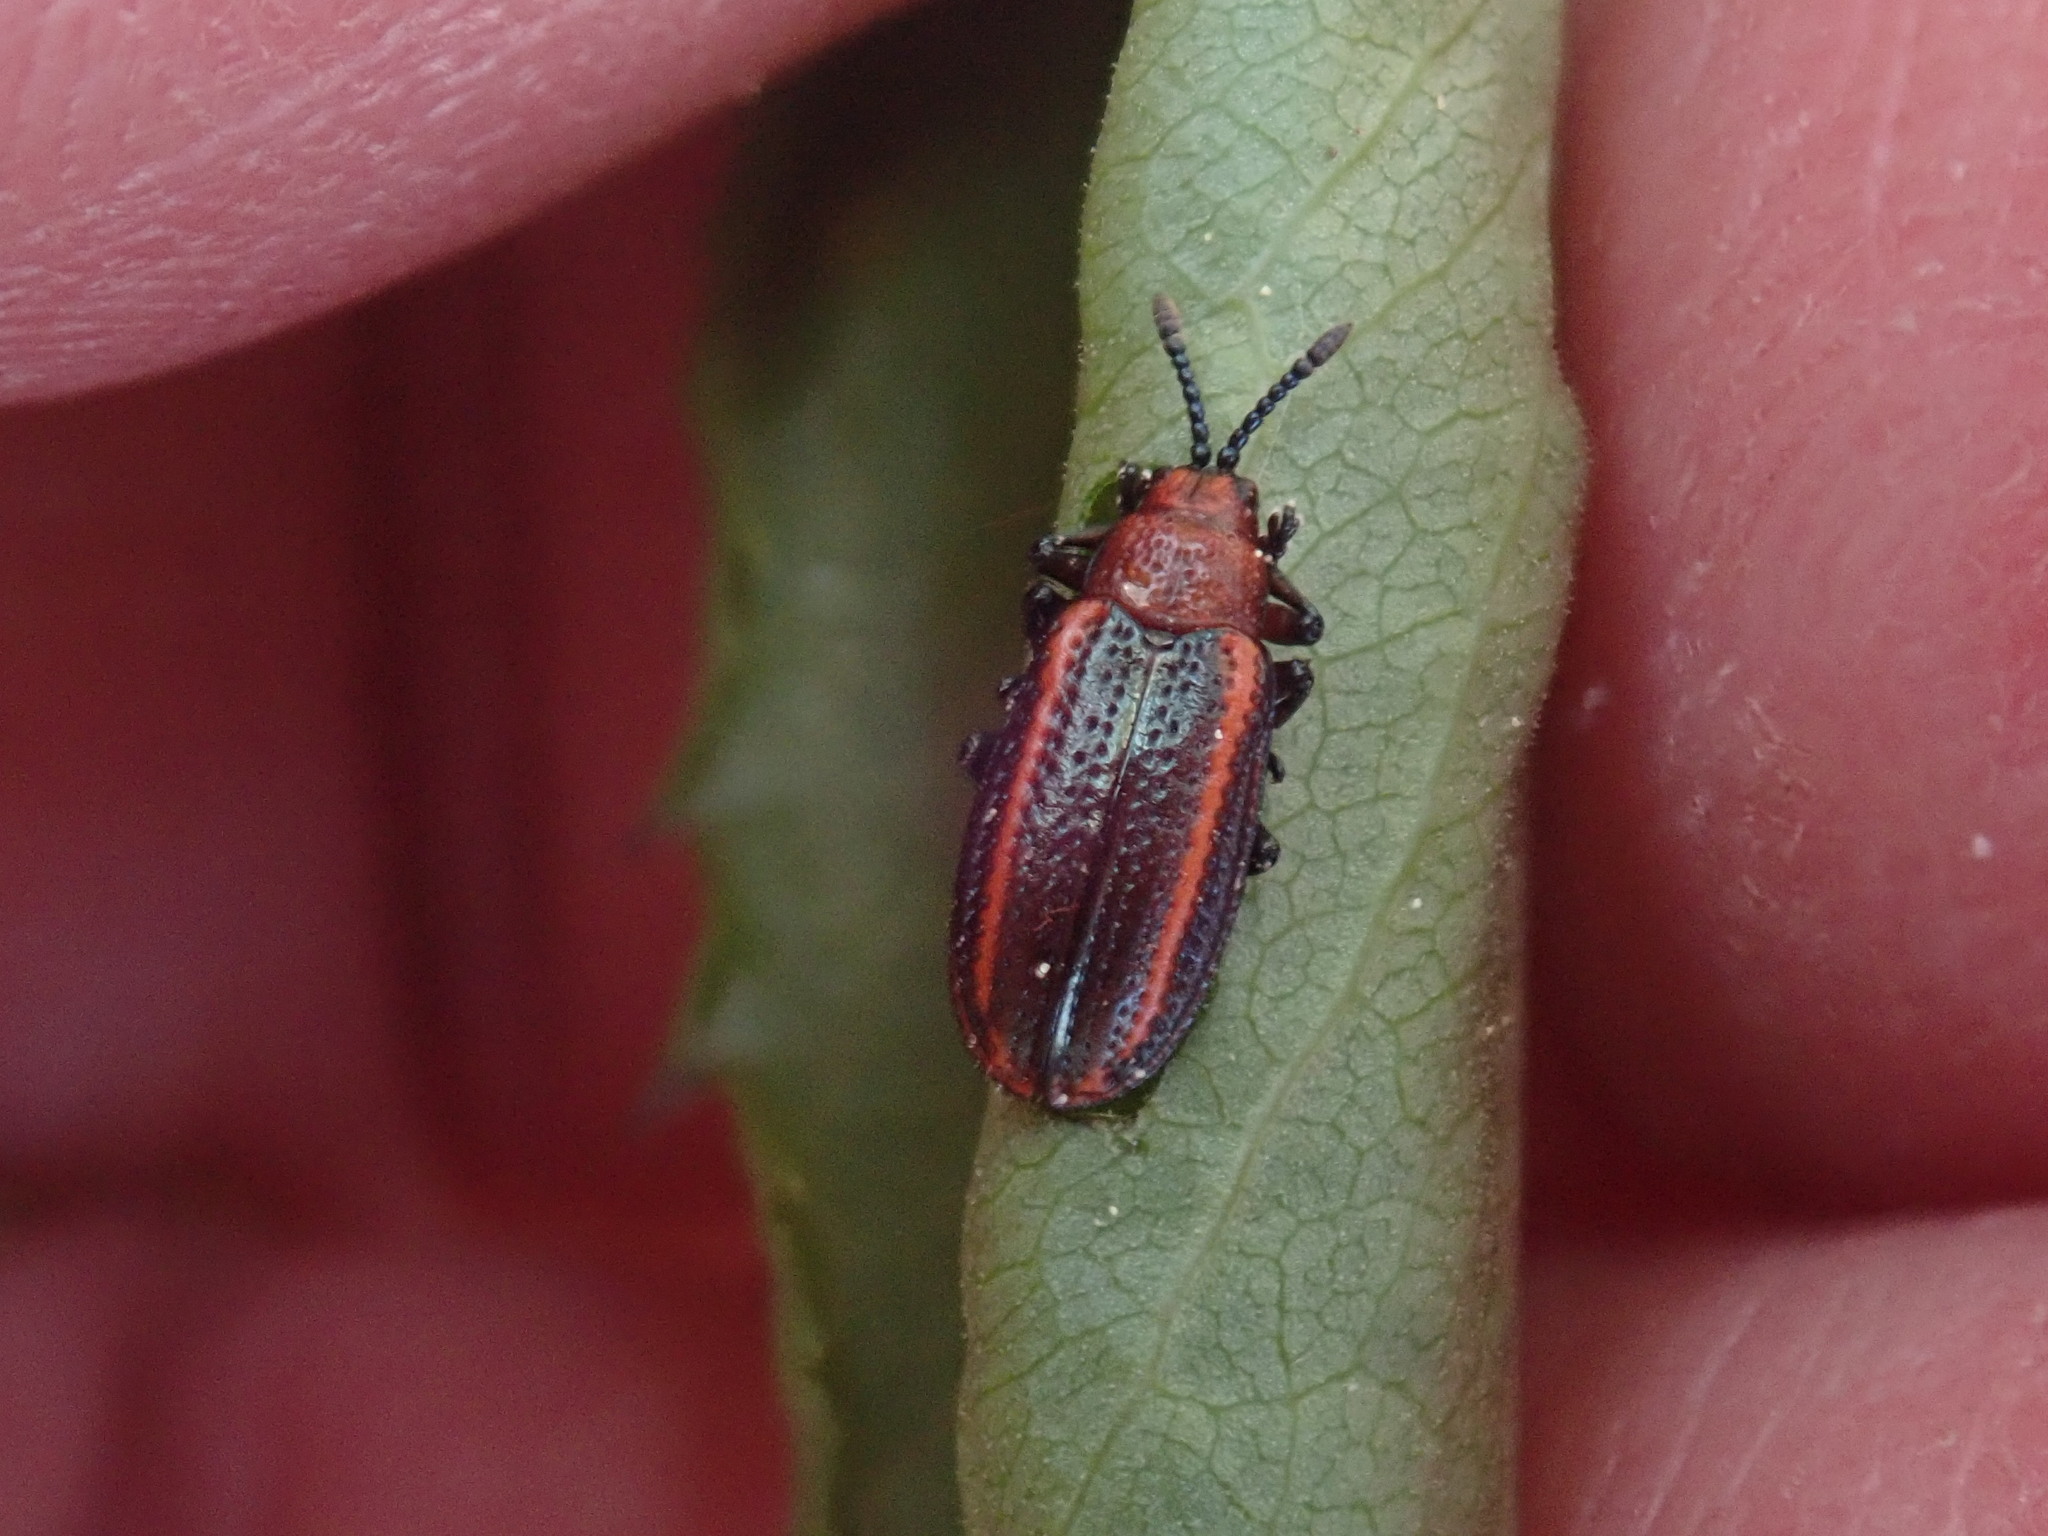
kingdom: Animalia
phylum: Arthropoda
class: Insecta
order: Coleoptera
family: Chrysomelidae
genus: Microrhopala
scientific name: Microrhopala vittata
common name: Goldenrod leaf miner beetle
